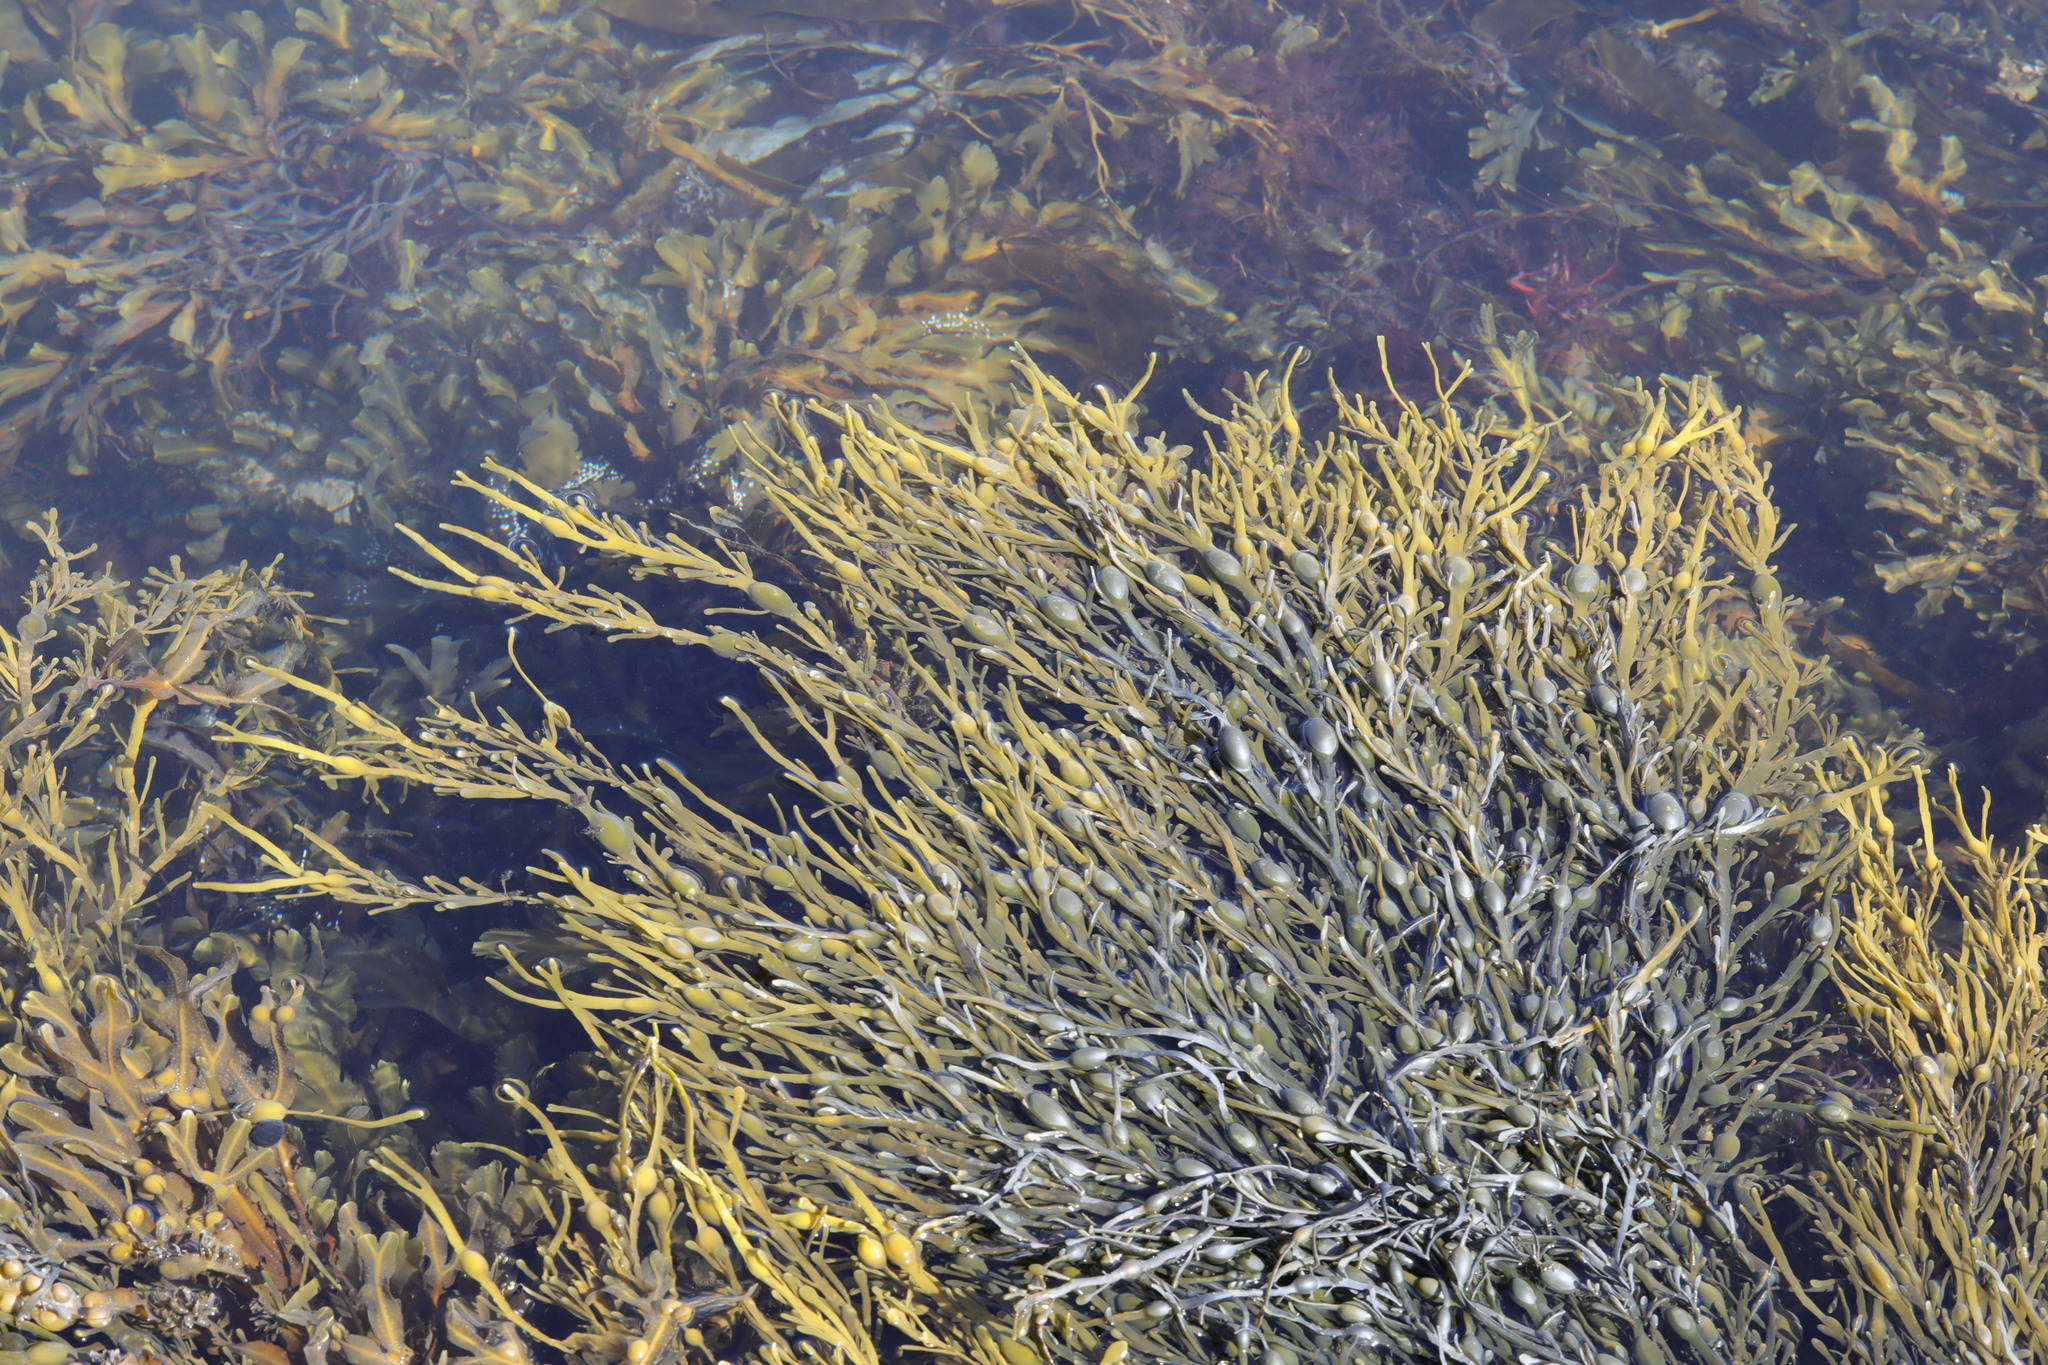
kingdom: Chromista
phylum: Ochrophyta
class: Phaeophyceae
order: Fucales
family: Fucaceae
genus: Ascophyllum
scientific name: Ascophyllum nodosum
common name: Knotted wrack
